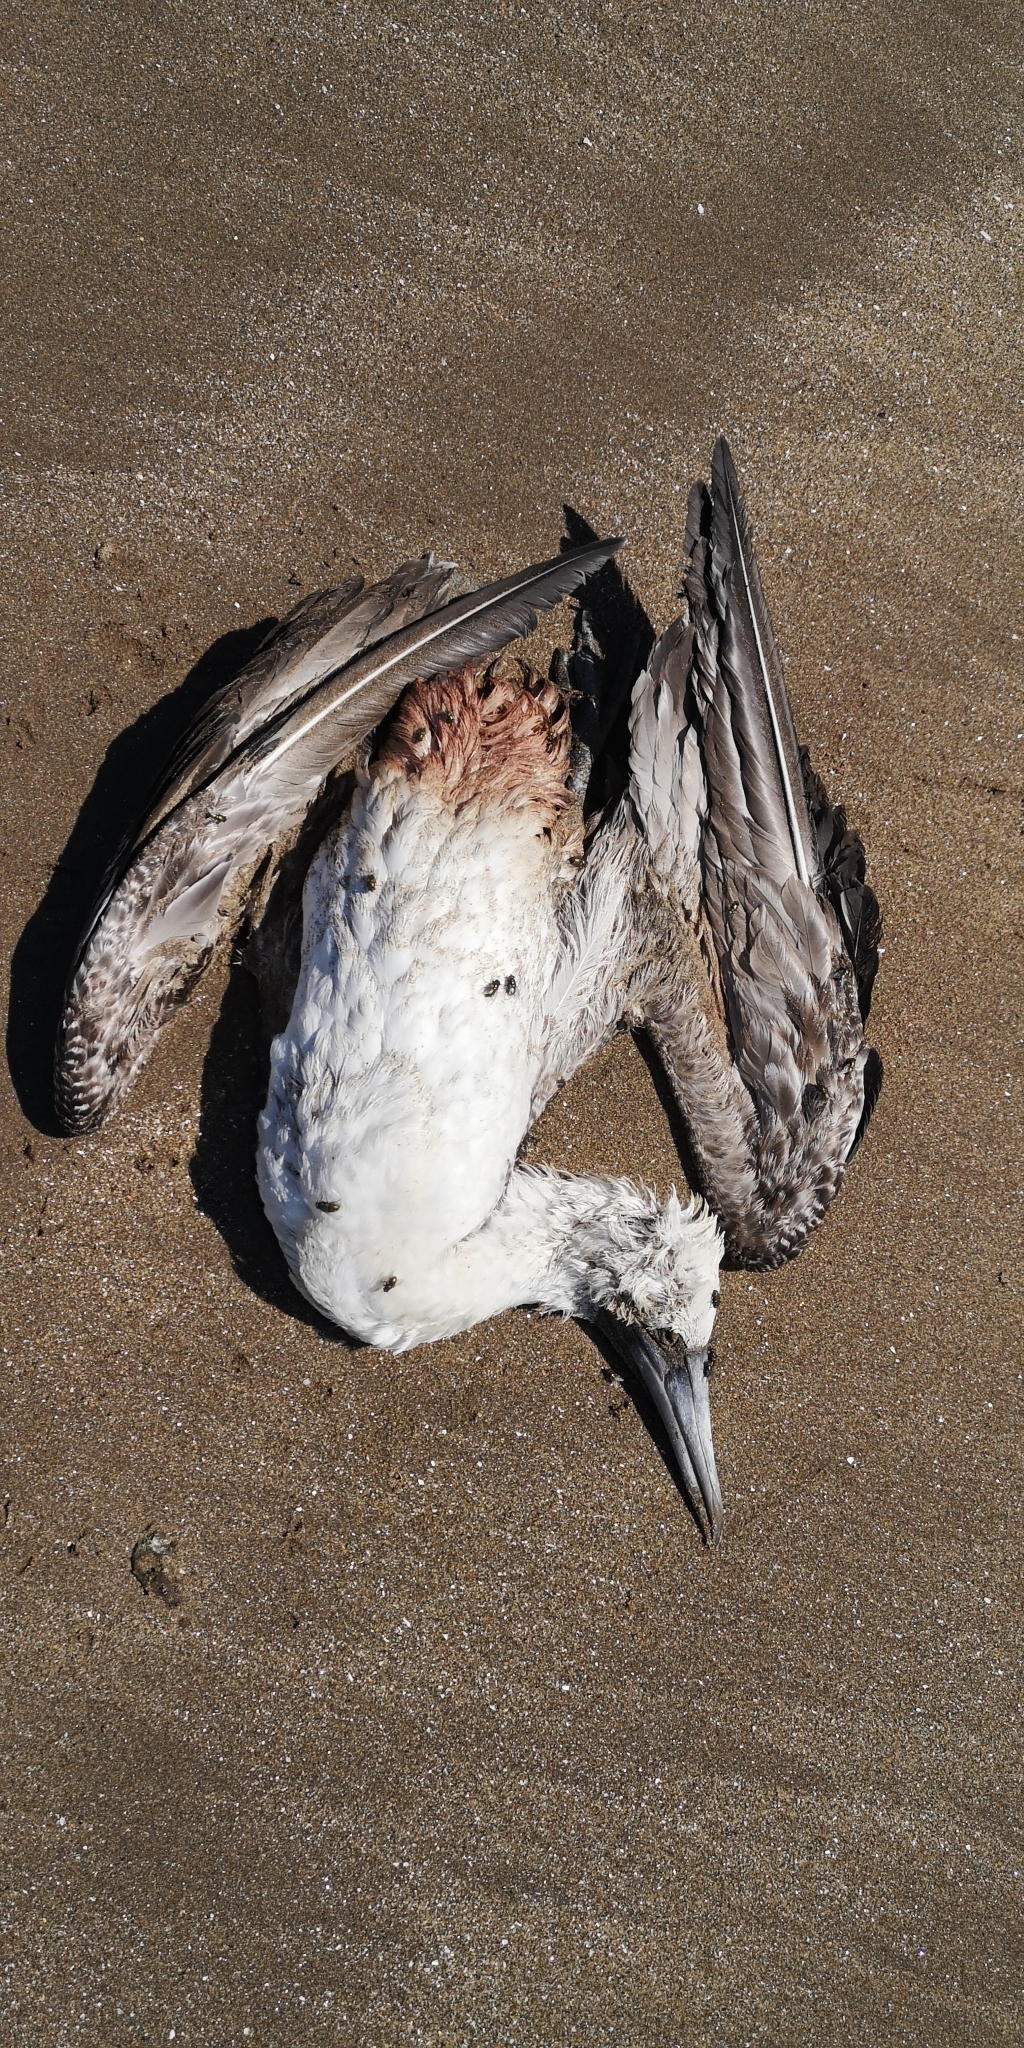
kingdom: Animalia
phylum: Chordata
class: Aves
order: Suliformes
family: Sulidae
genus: Sula
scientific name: Sula variegata
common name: Peruvian booby
